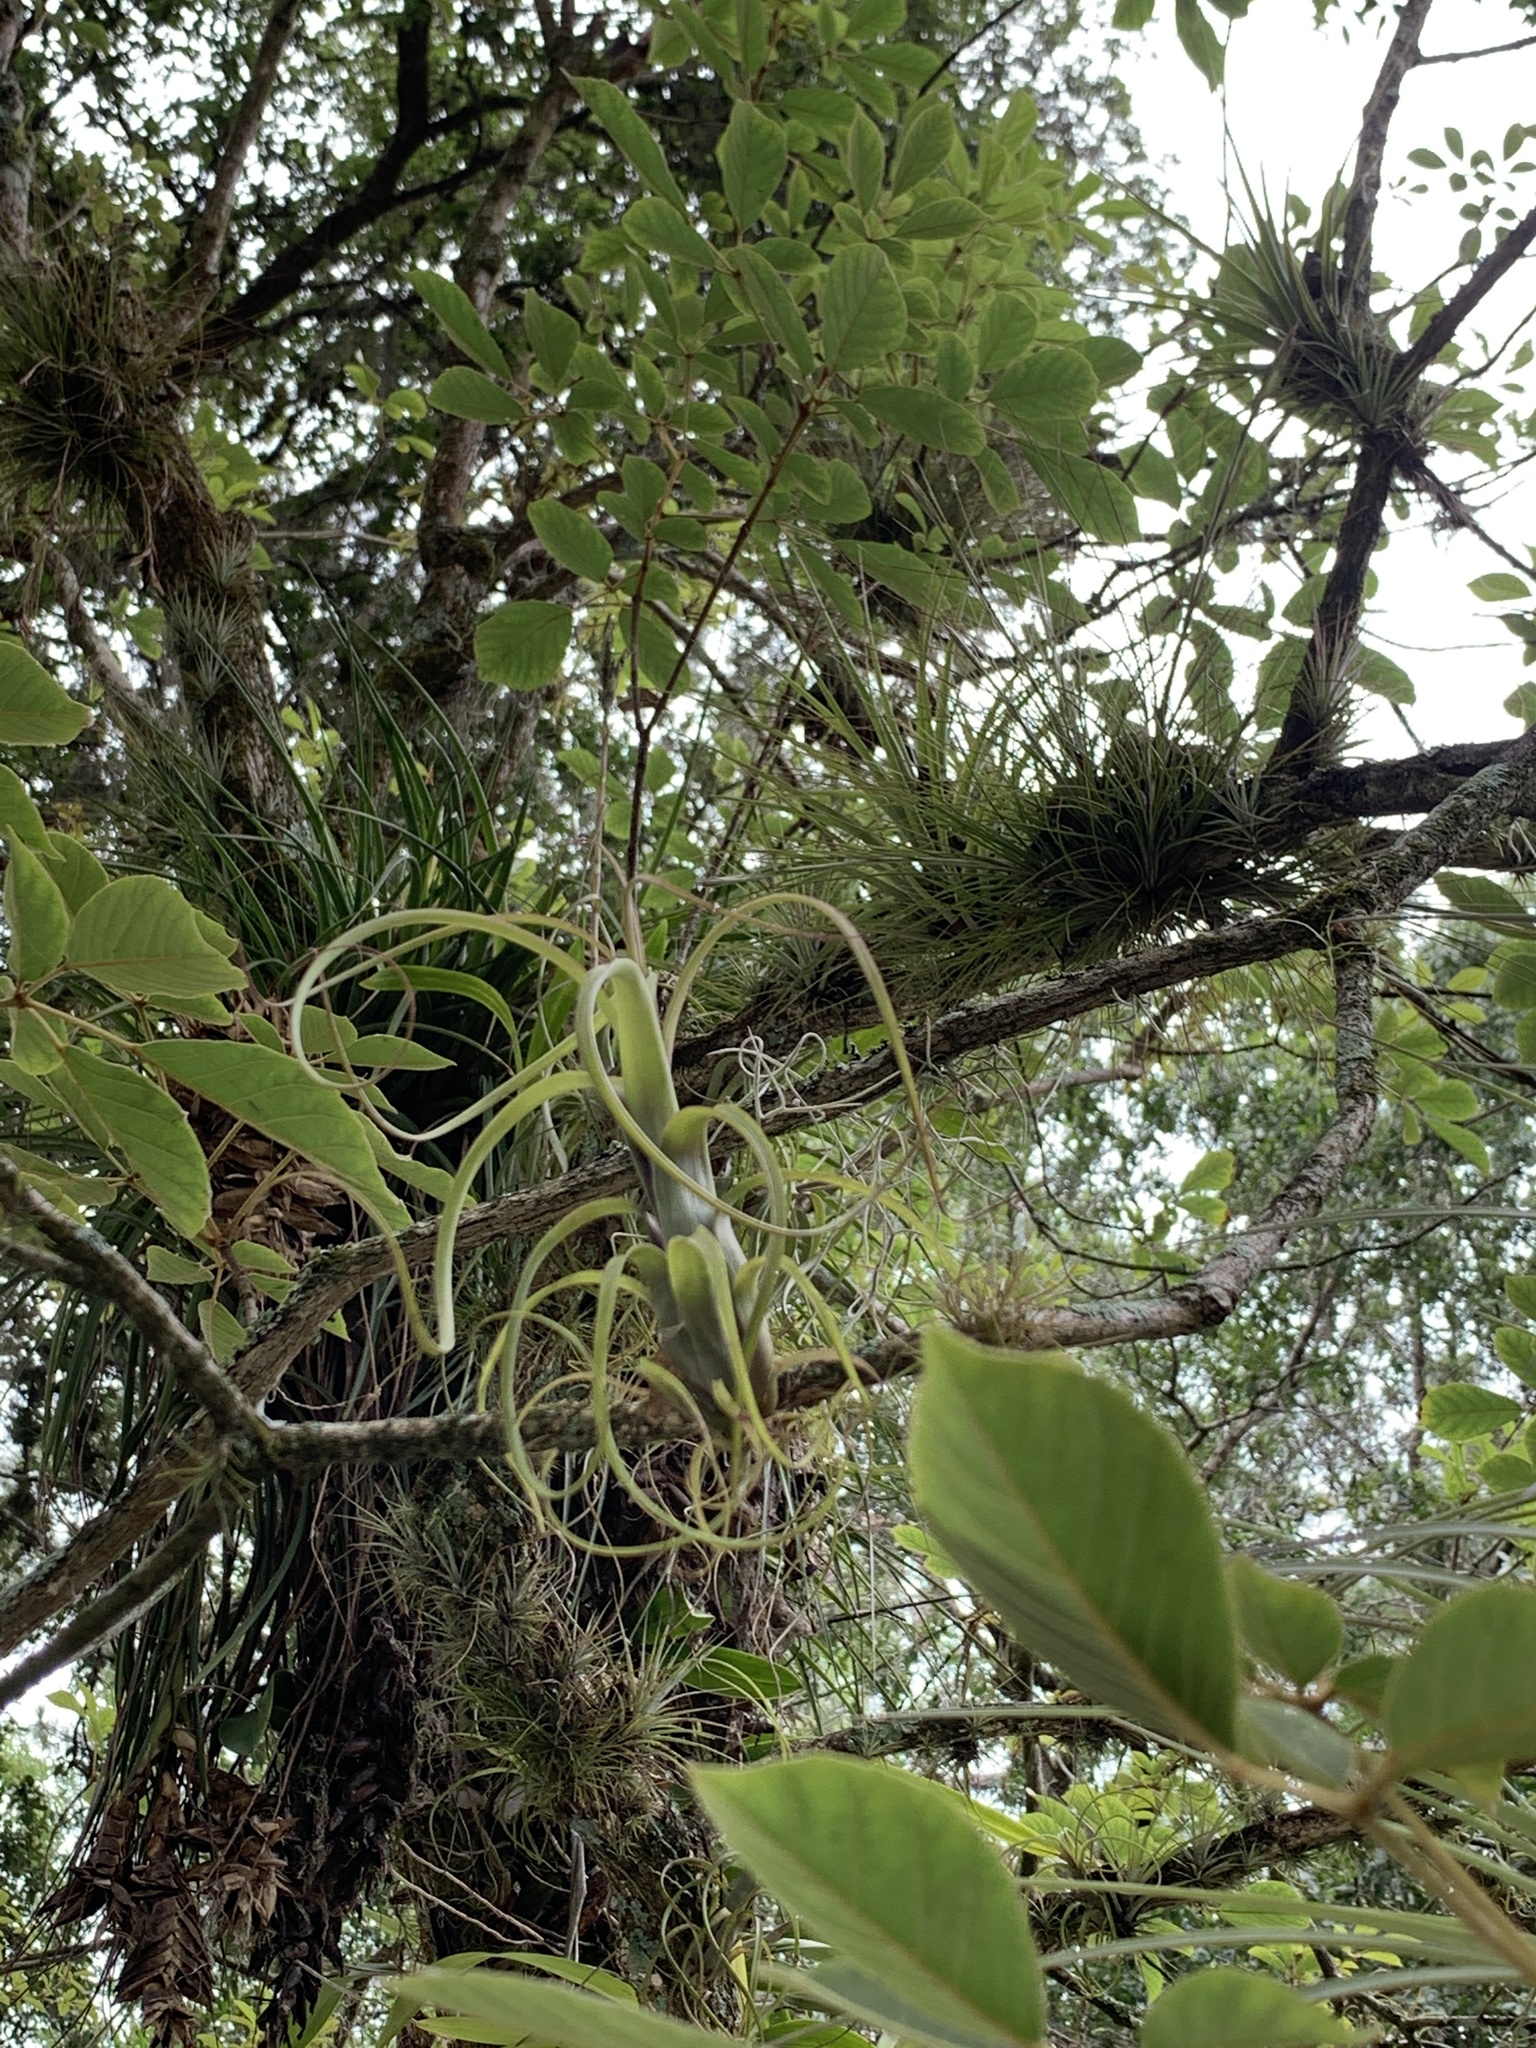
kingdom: Plantae
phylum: Tracheophyta
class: Liliopsida
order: Poales
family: Bromeliaceae
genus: Tillandsia
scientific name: Tillandsia balbisiana
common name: Northern needleleaf
